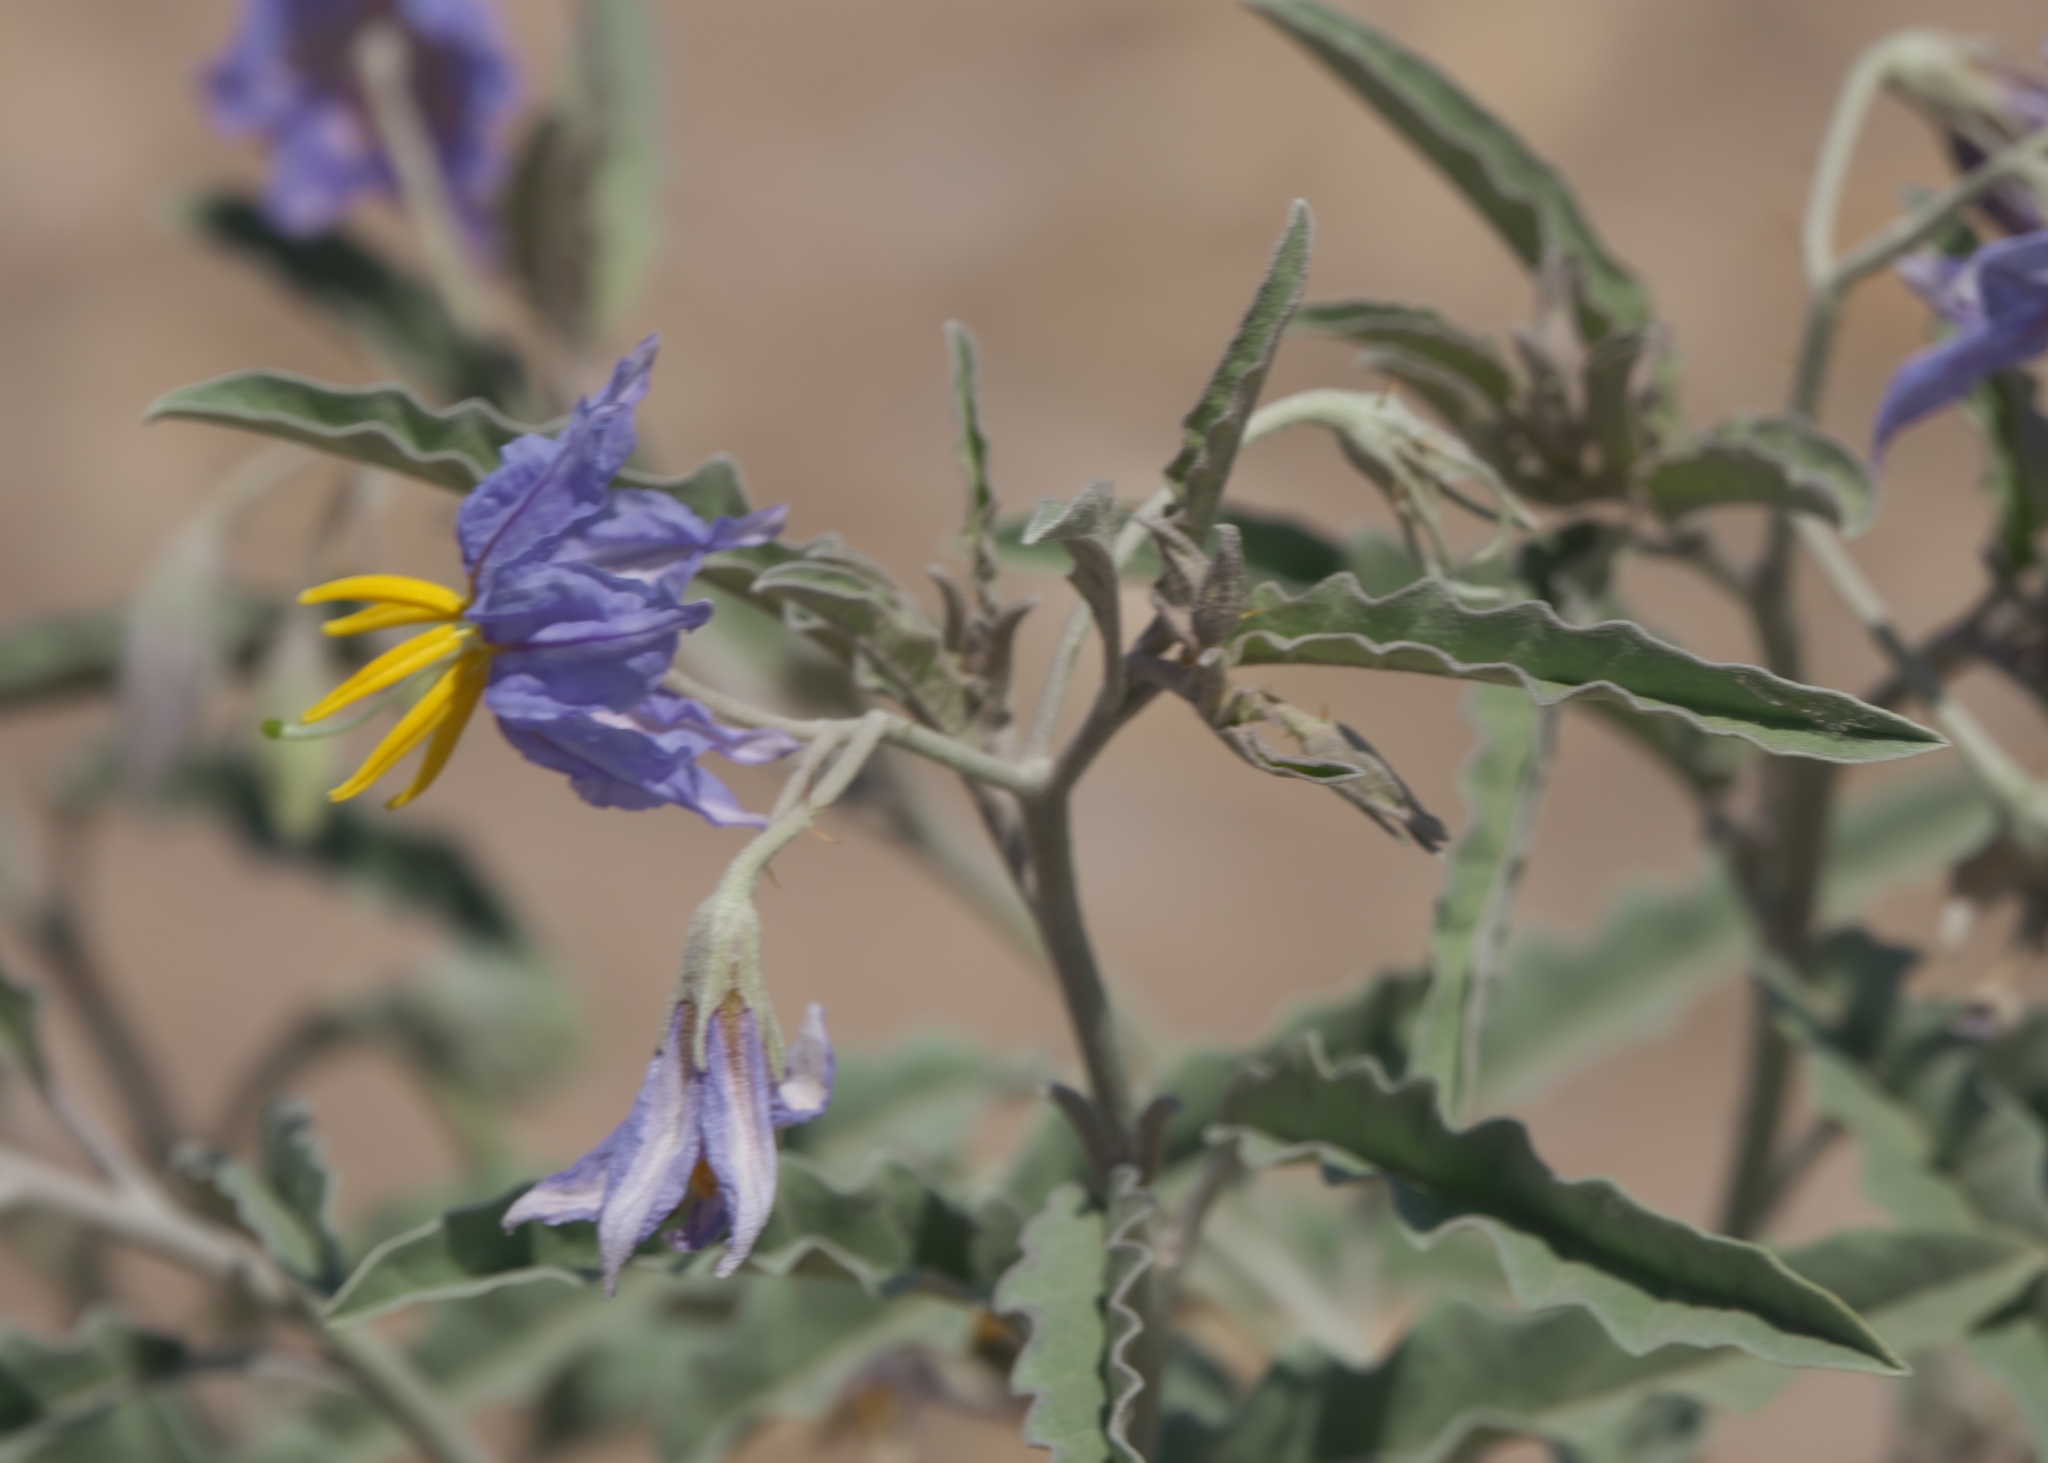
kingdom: Plantae
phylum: Tracheophyta
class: Magnoliopsida
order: Solanales
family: Solanaceae
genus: Solanum
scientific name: Solanum elaeagnifolium
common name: Silverleaf nightshade
